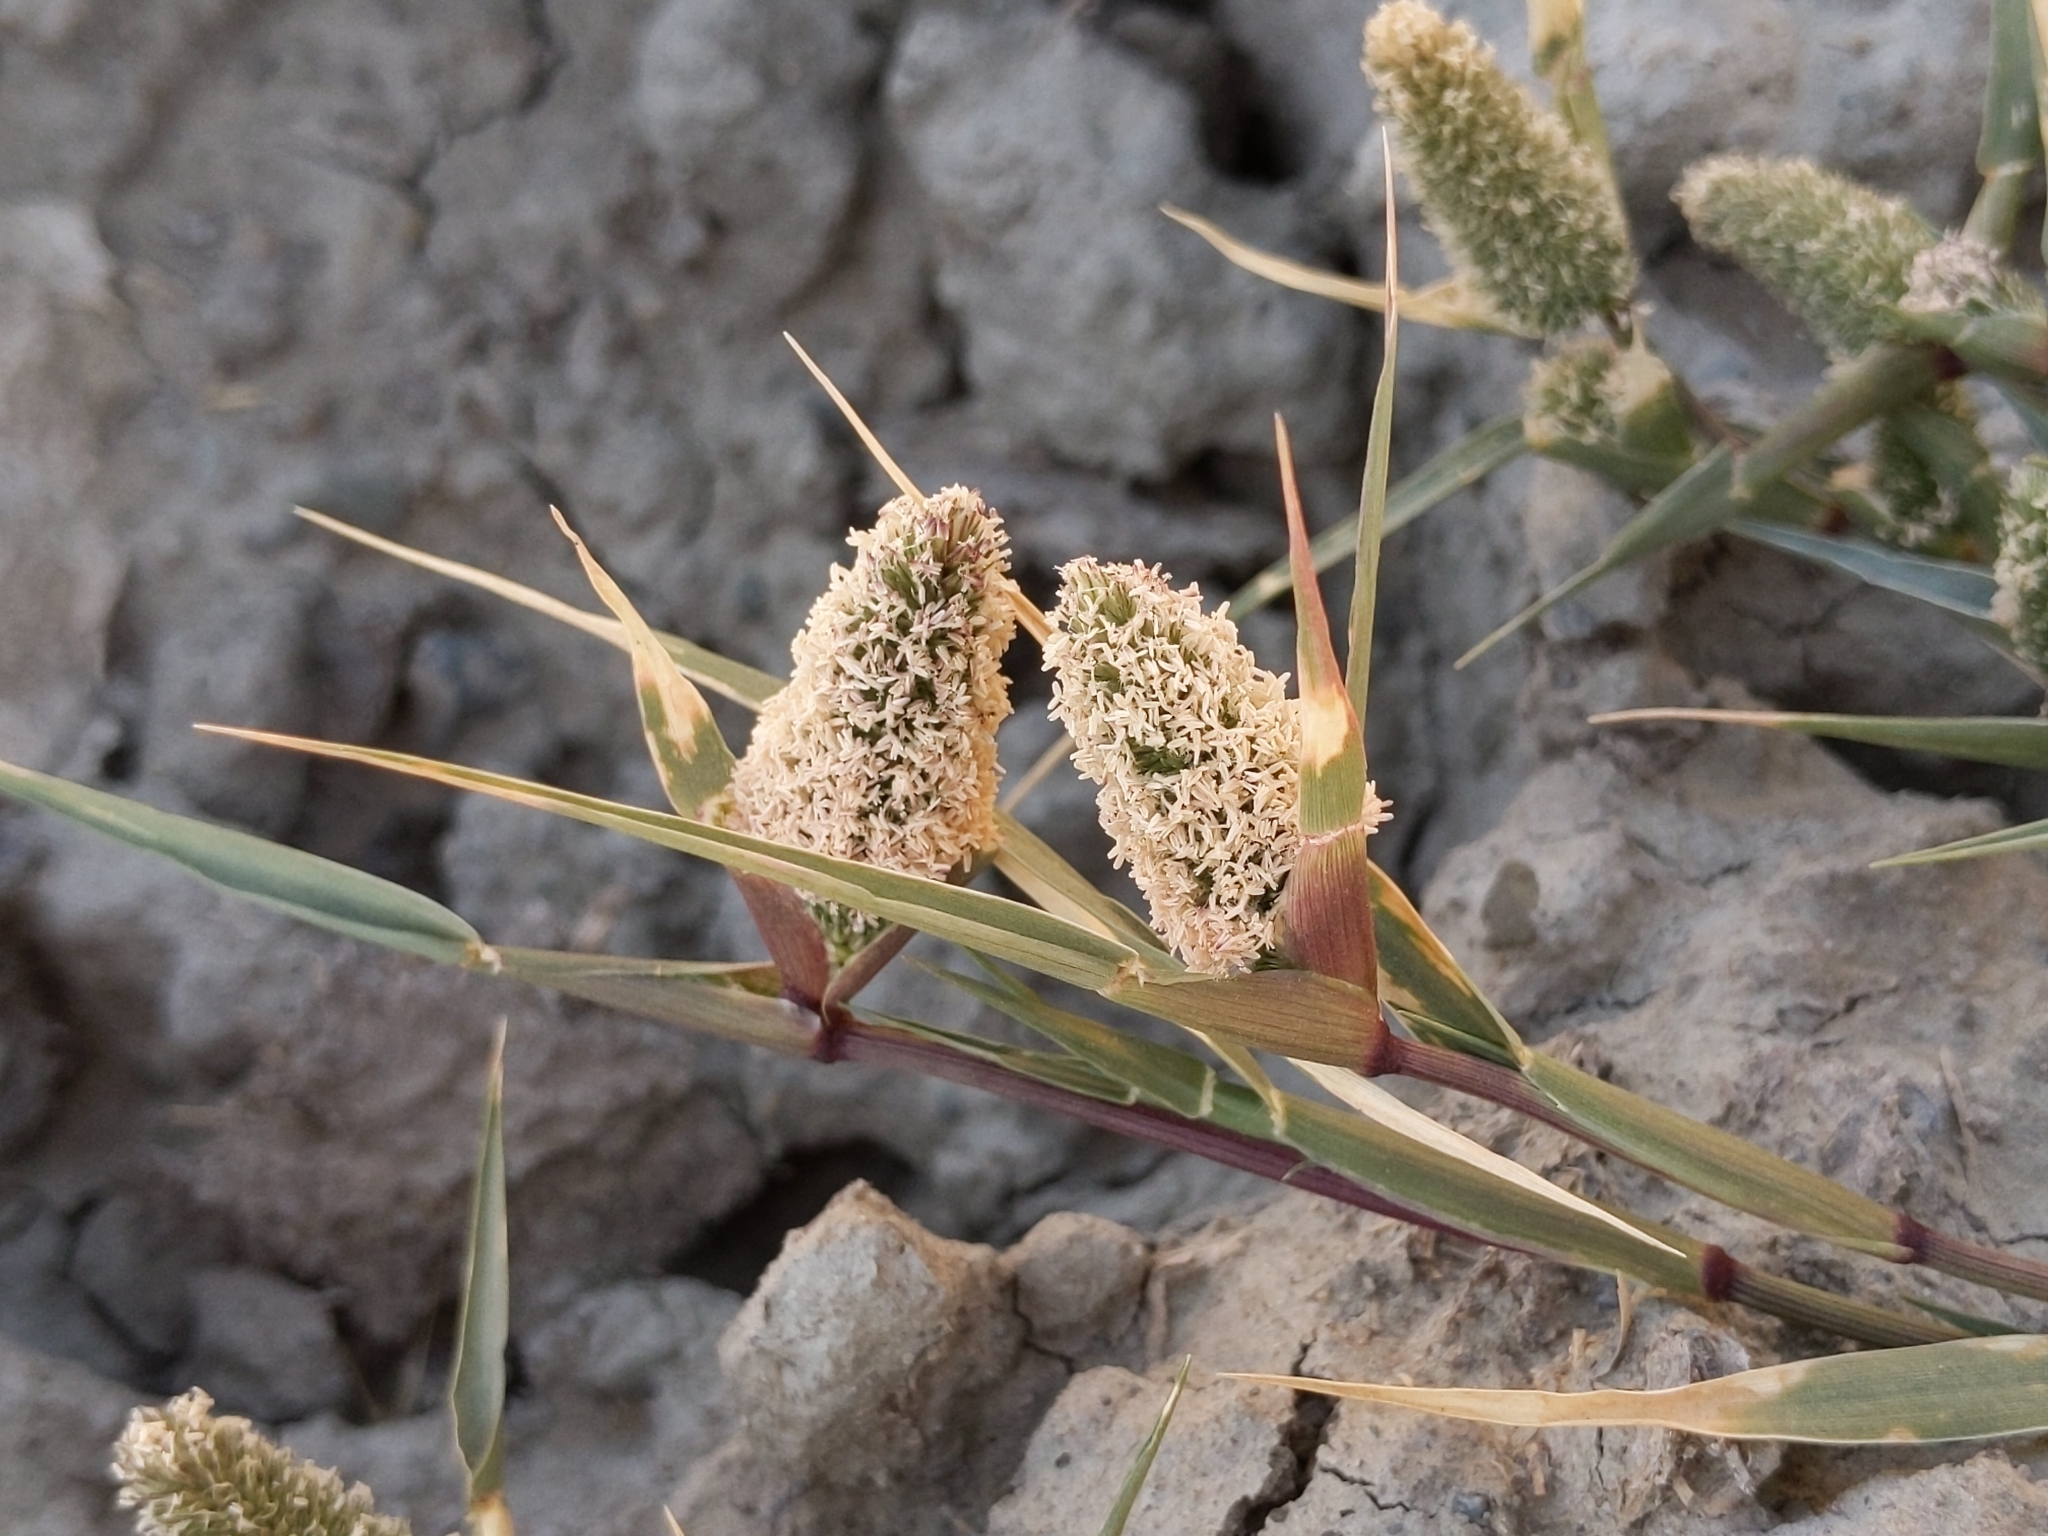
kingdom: Plantae
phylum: Tracheophyta
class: Liliopsida
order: Poales
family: Poaceae
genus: Sporobolus
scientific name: Sporobolus schoenoides
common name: Rush-like timothy
